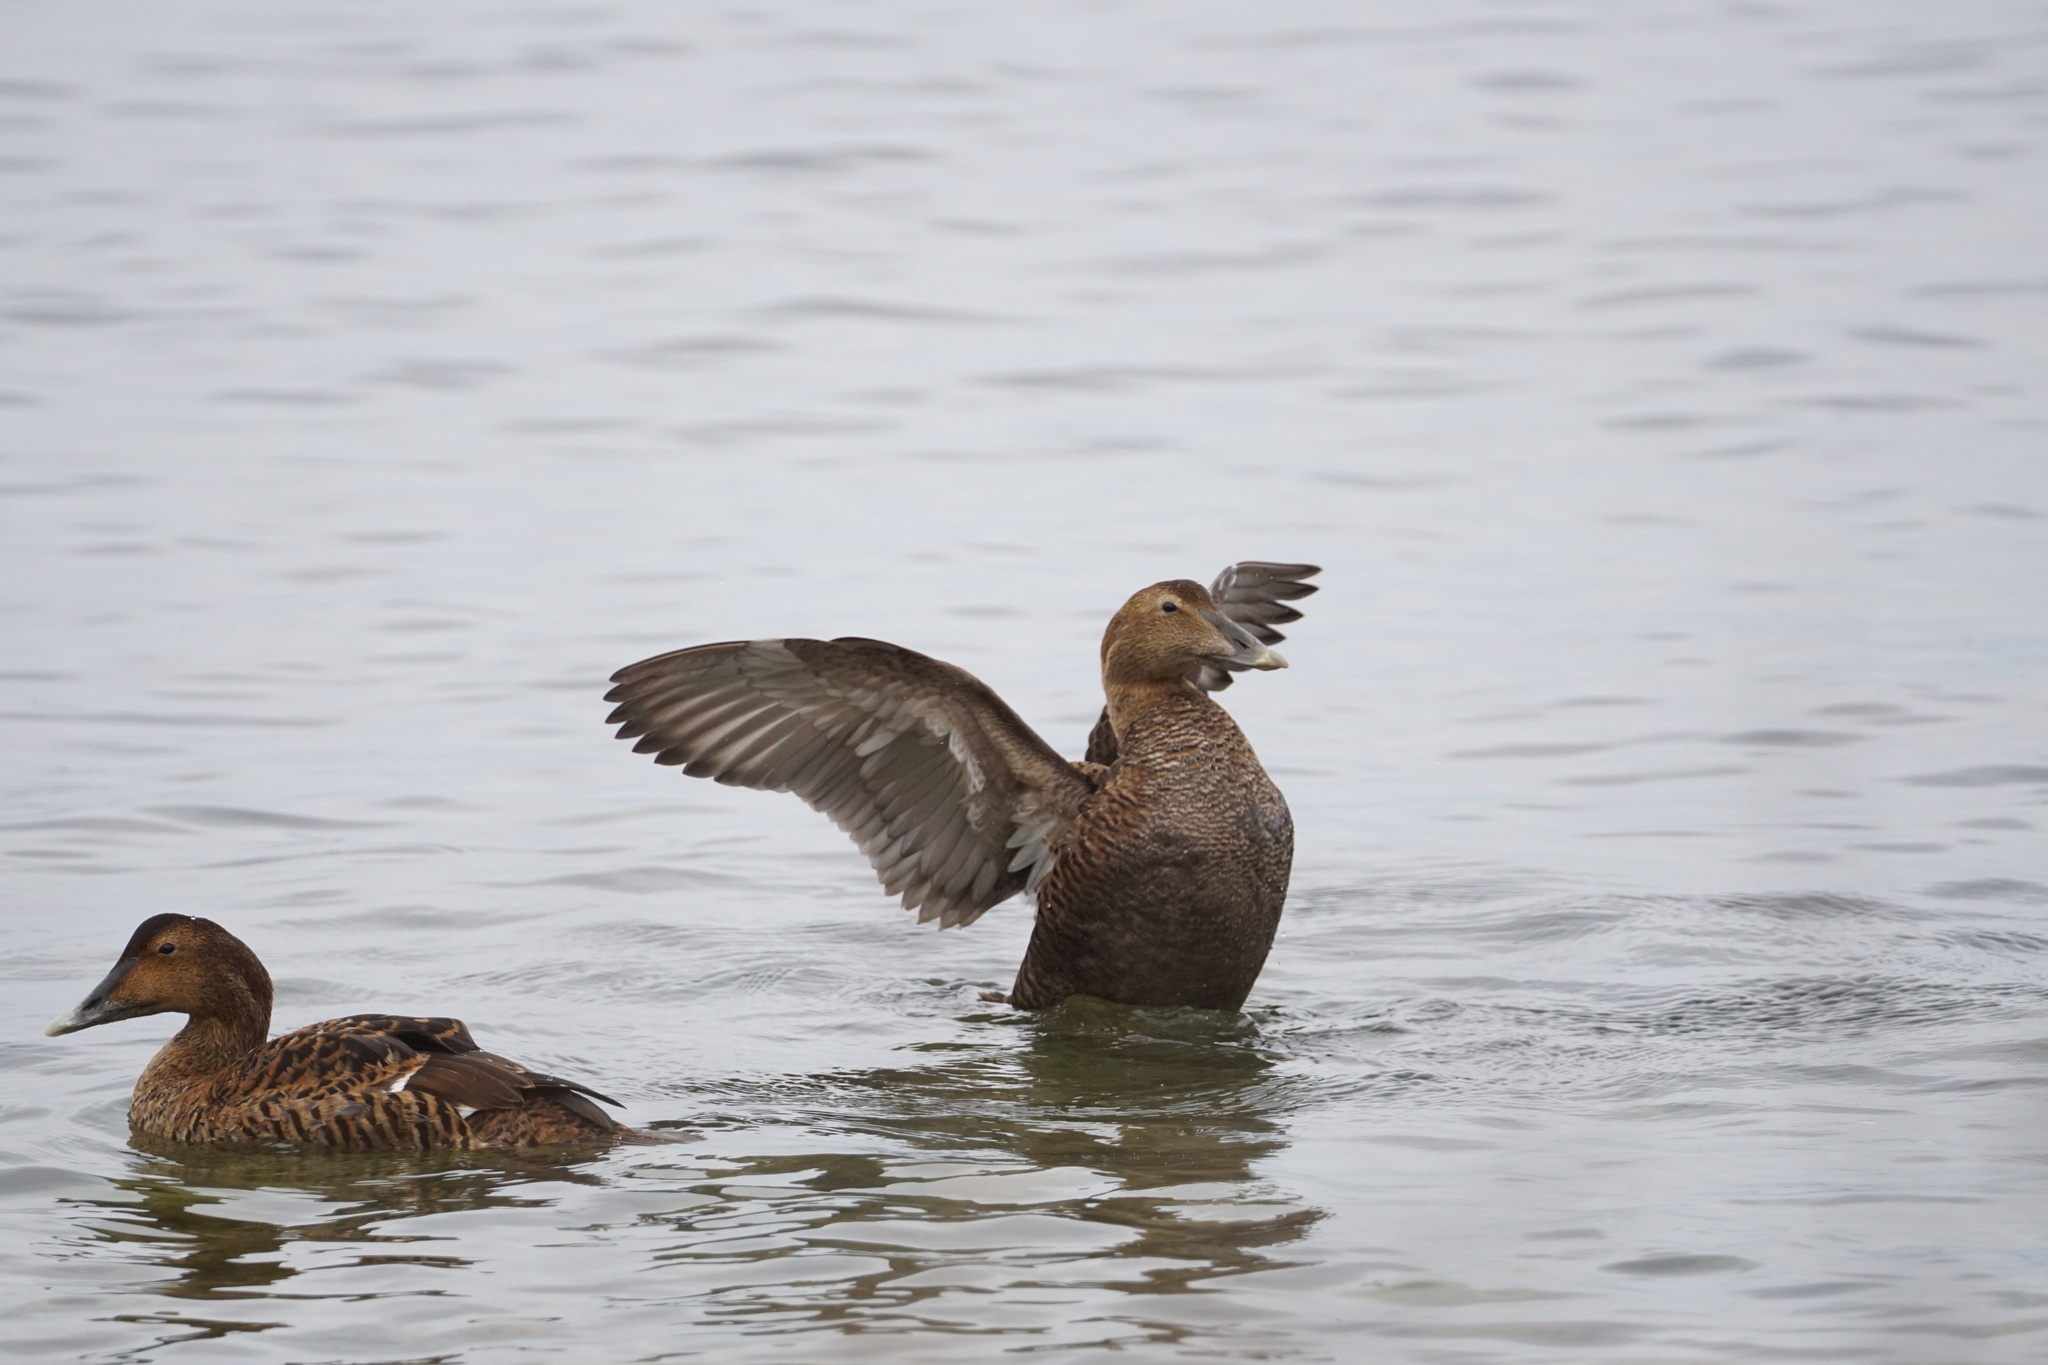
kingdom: Animalia
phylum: Chordata
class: Aves
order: Anseriformes
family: Anatidae
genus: Somateria
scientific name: Somateria mollissima
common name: Common eider
